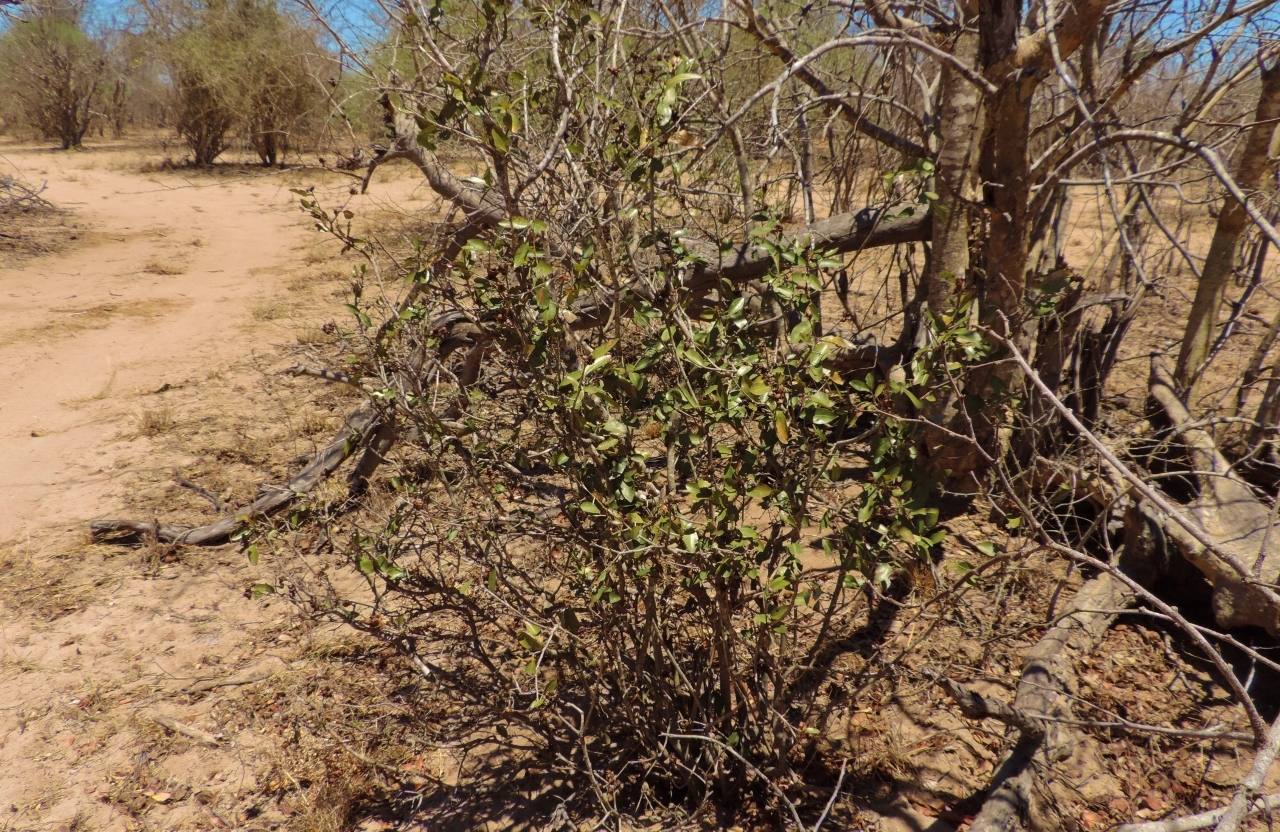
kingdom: Plantae
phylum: Tracheophyta
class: Magnoliopsida
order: Malpighiales
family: Ochnaceae
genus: Ochna
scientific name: Ochna natalitia
